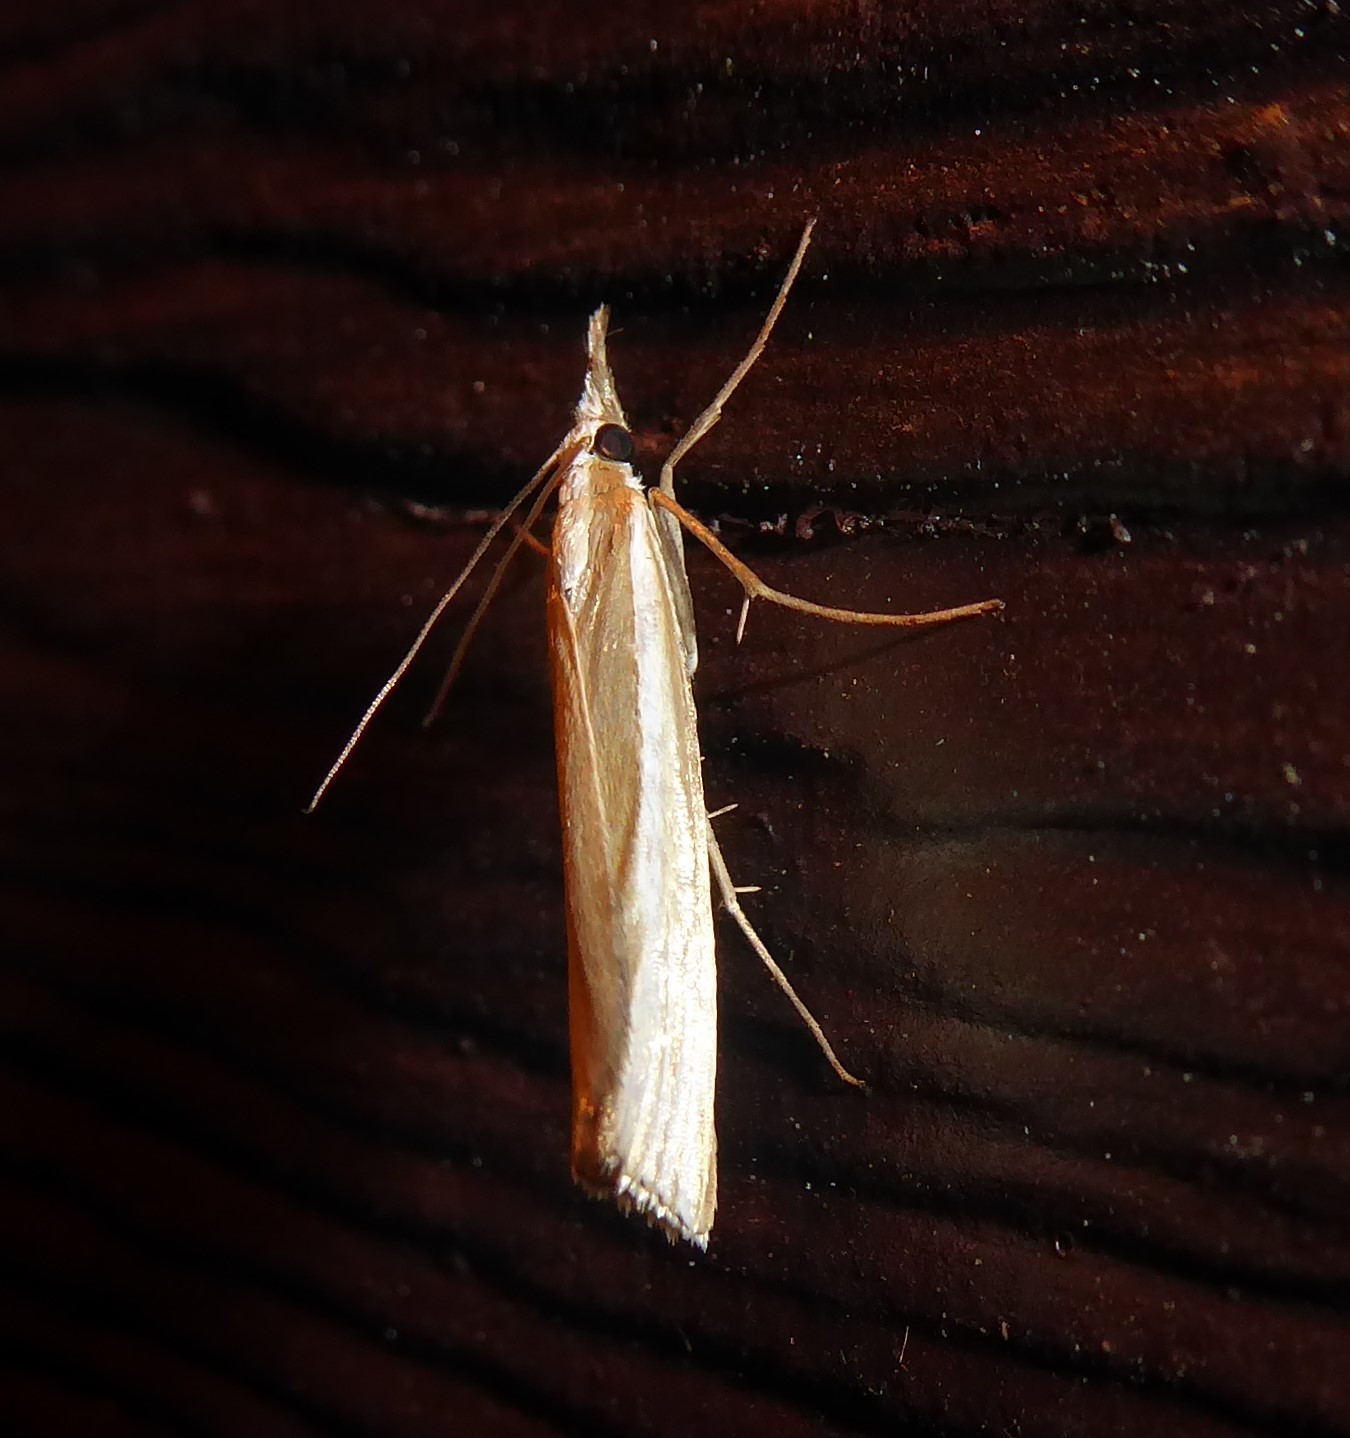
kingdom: Animalia
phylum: Arthropoda
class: Insecta
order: Lepidoptera
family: Crambidae
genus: Orocrambus
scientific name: Orocrambus ramosellus
